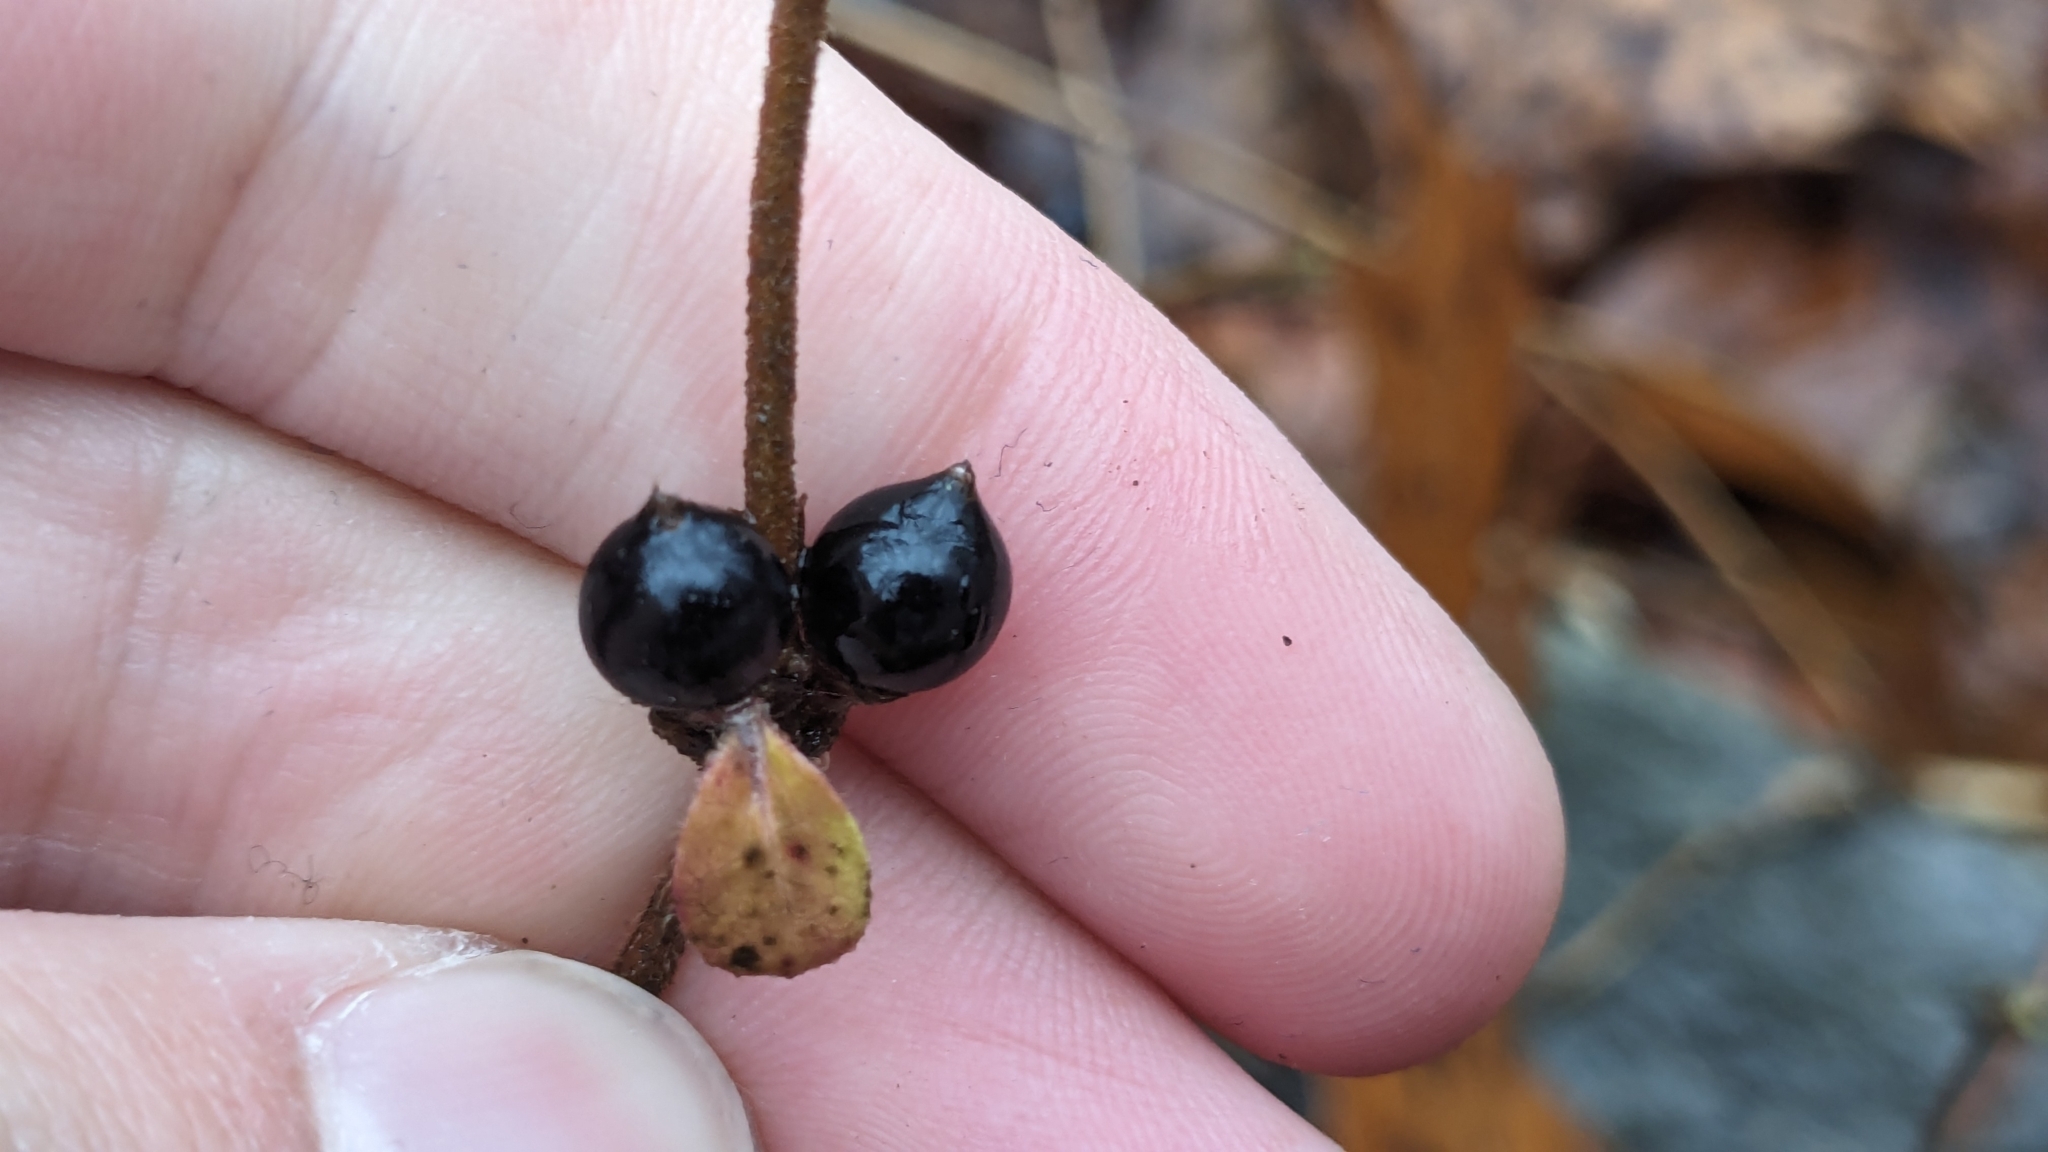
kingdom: Plantae
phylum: Tracheophyta
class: Magnoliopsida
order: Dipsacales
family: Caprifoliaceae
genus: Lonicera
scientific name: Lonicera japonica
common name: Japanese honeysuckle
